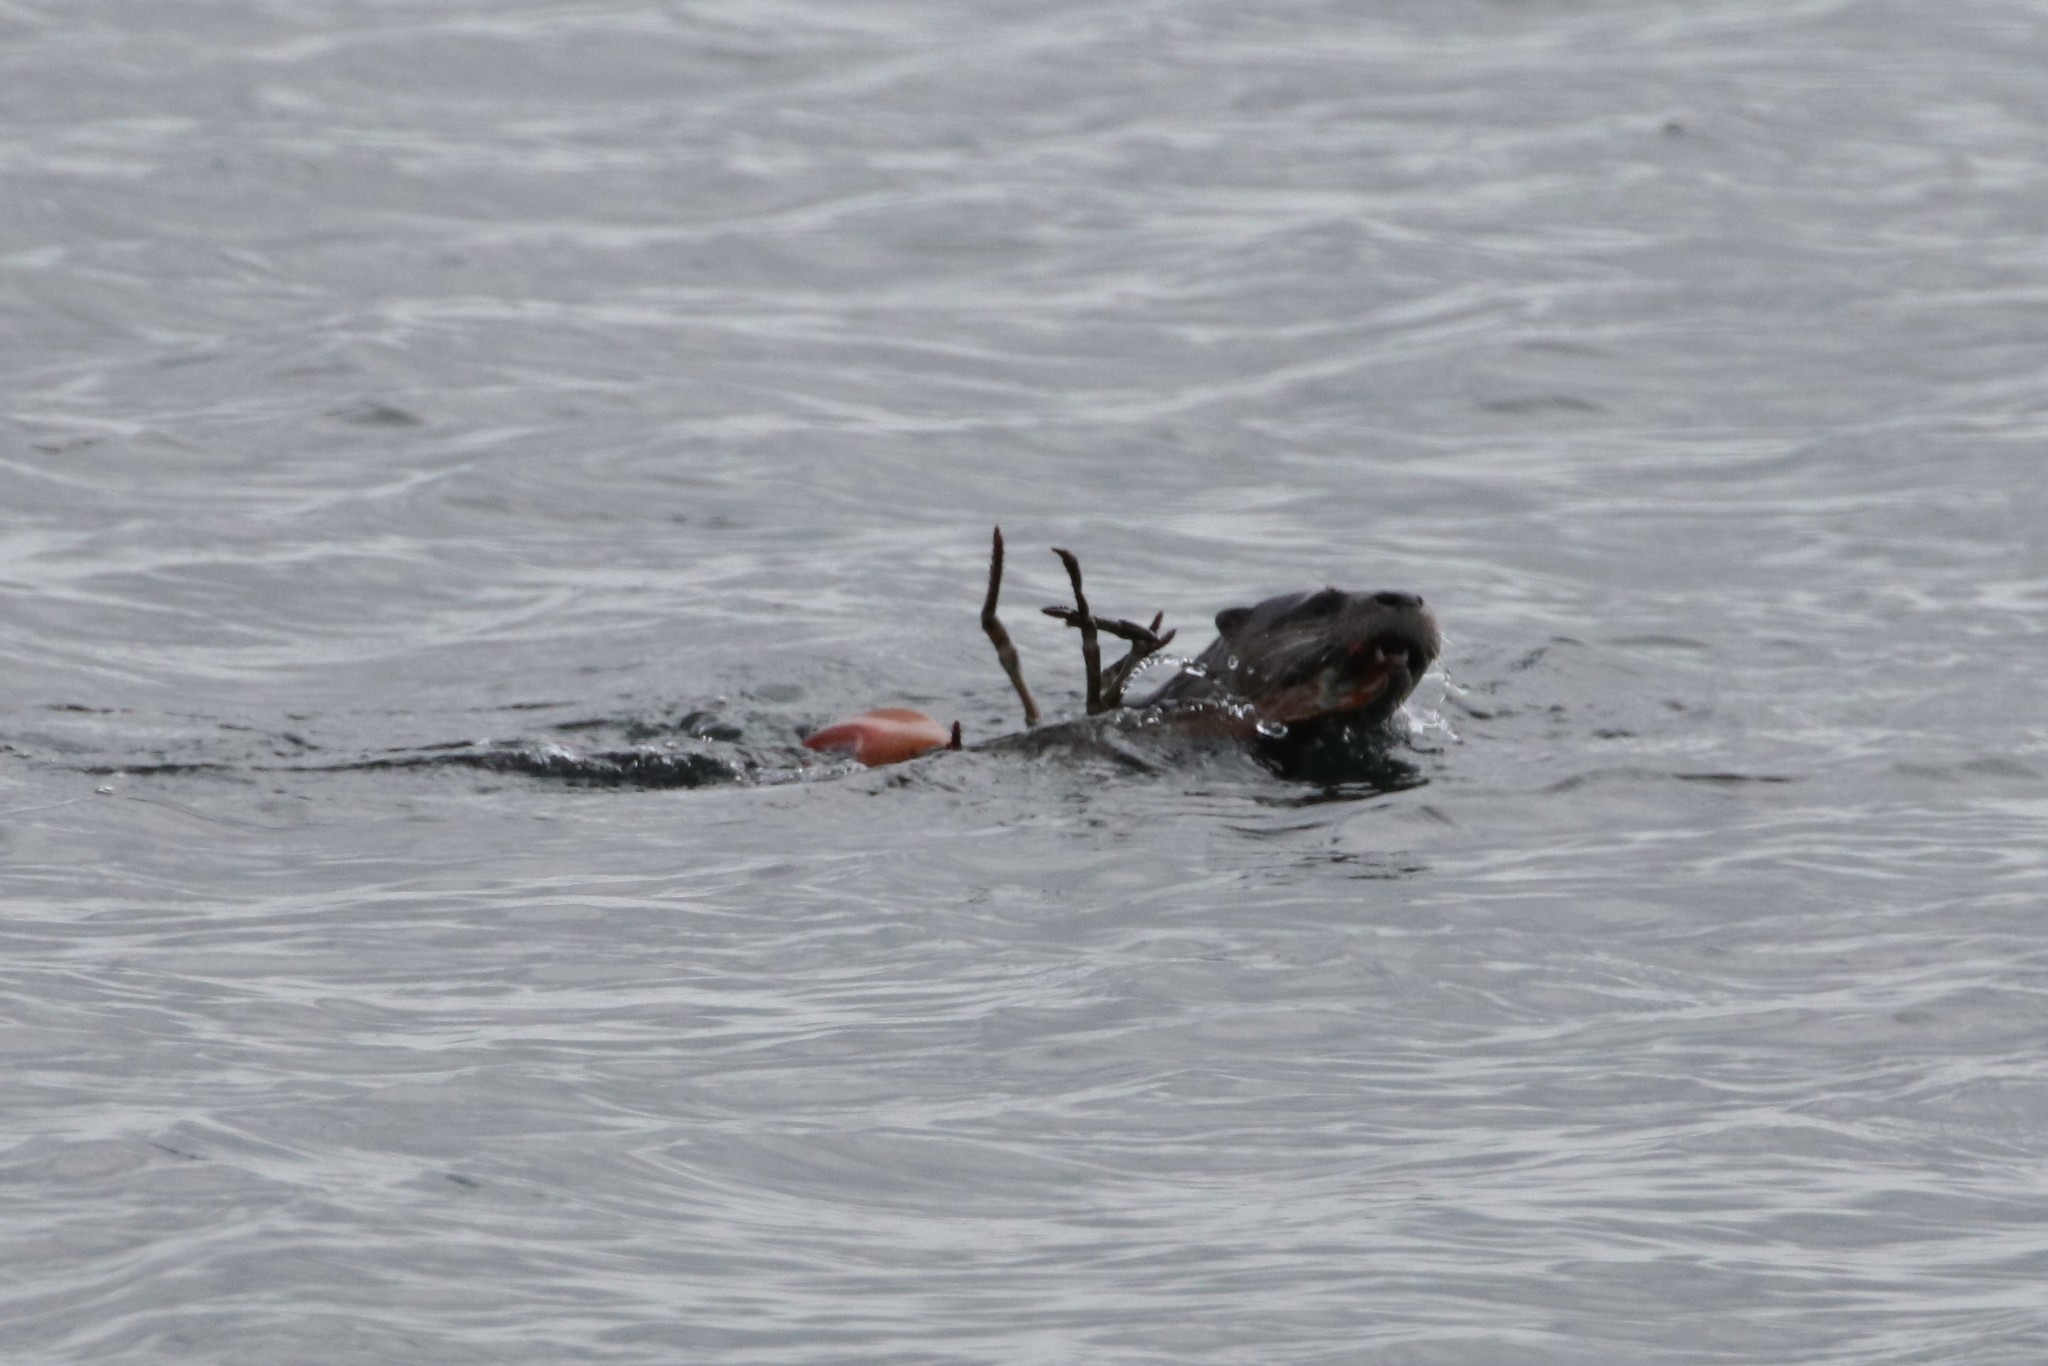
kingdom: Animalia
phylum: Chordata
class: Mammalia
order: Carnivora
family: Mustelidae
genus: Lontra
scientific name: Lontra canadensis
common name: North american river otter
